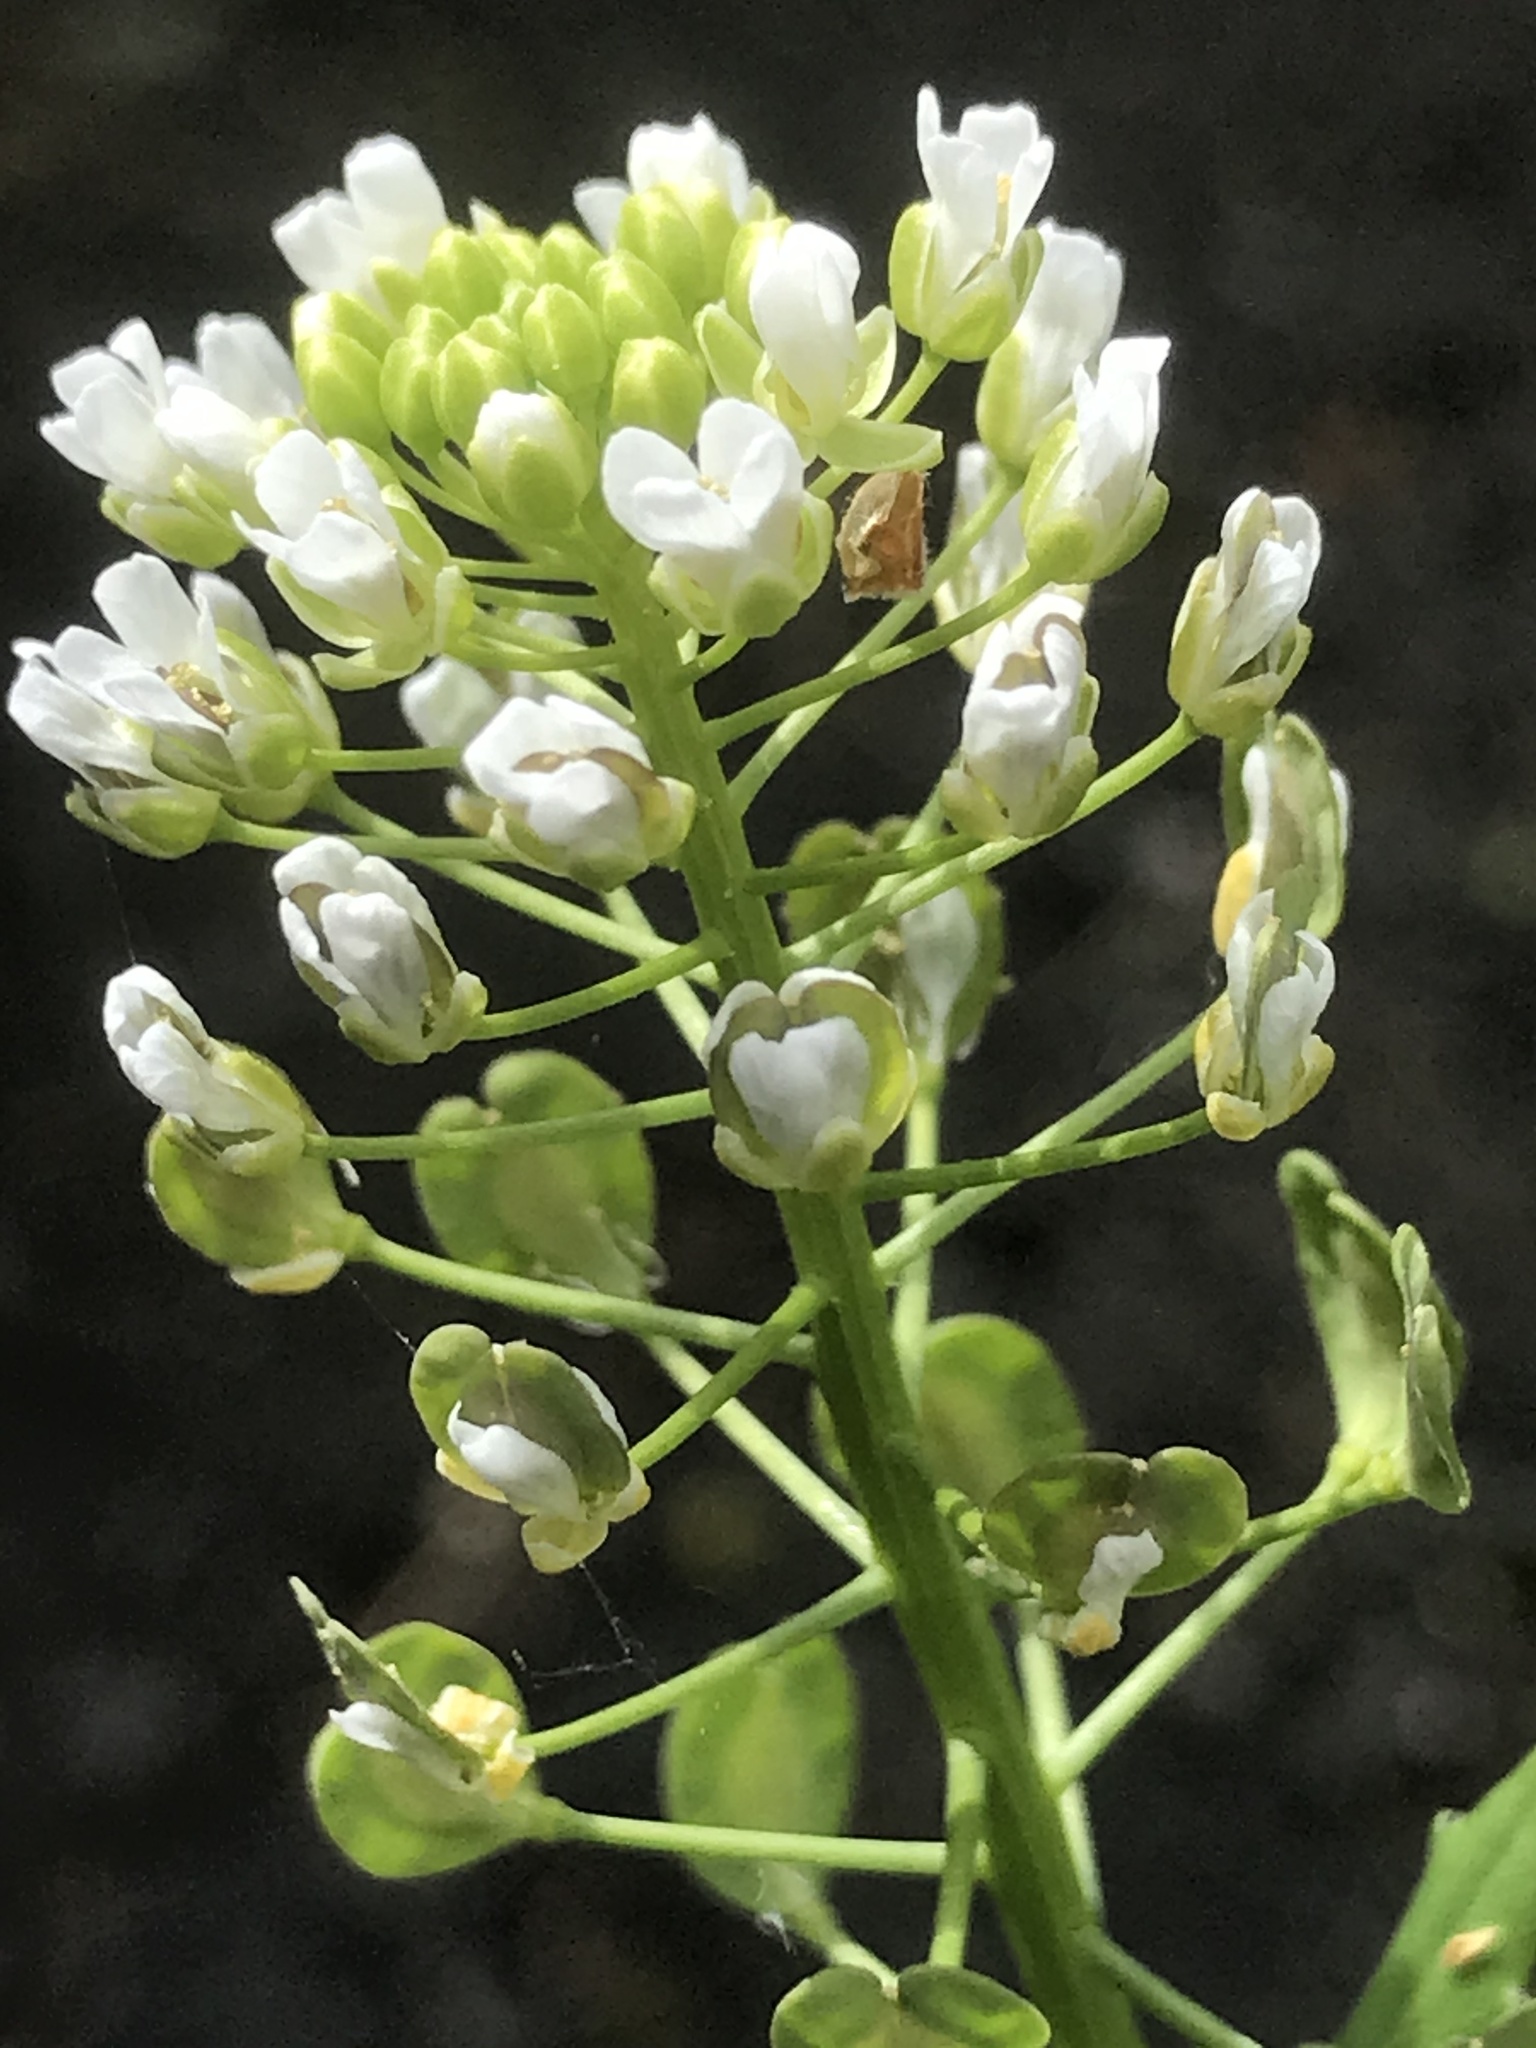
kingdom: Plantae
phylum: Tracheophyta
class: Magnoliopsida
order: Brassicales
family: Brassicaceae
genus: Thlaspi
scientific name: Thlaspi arvense
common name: Field pennycress
